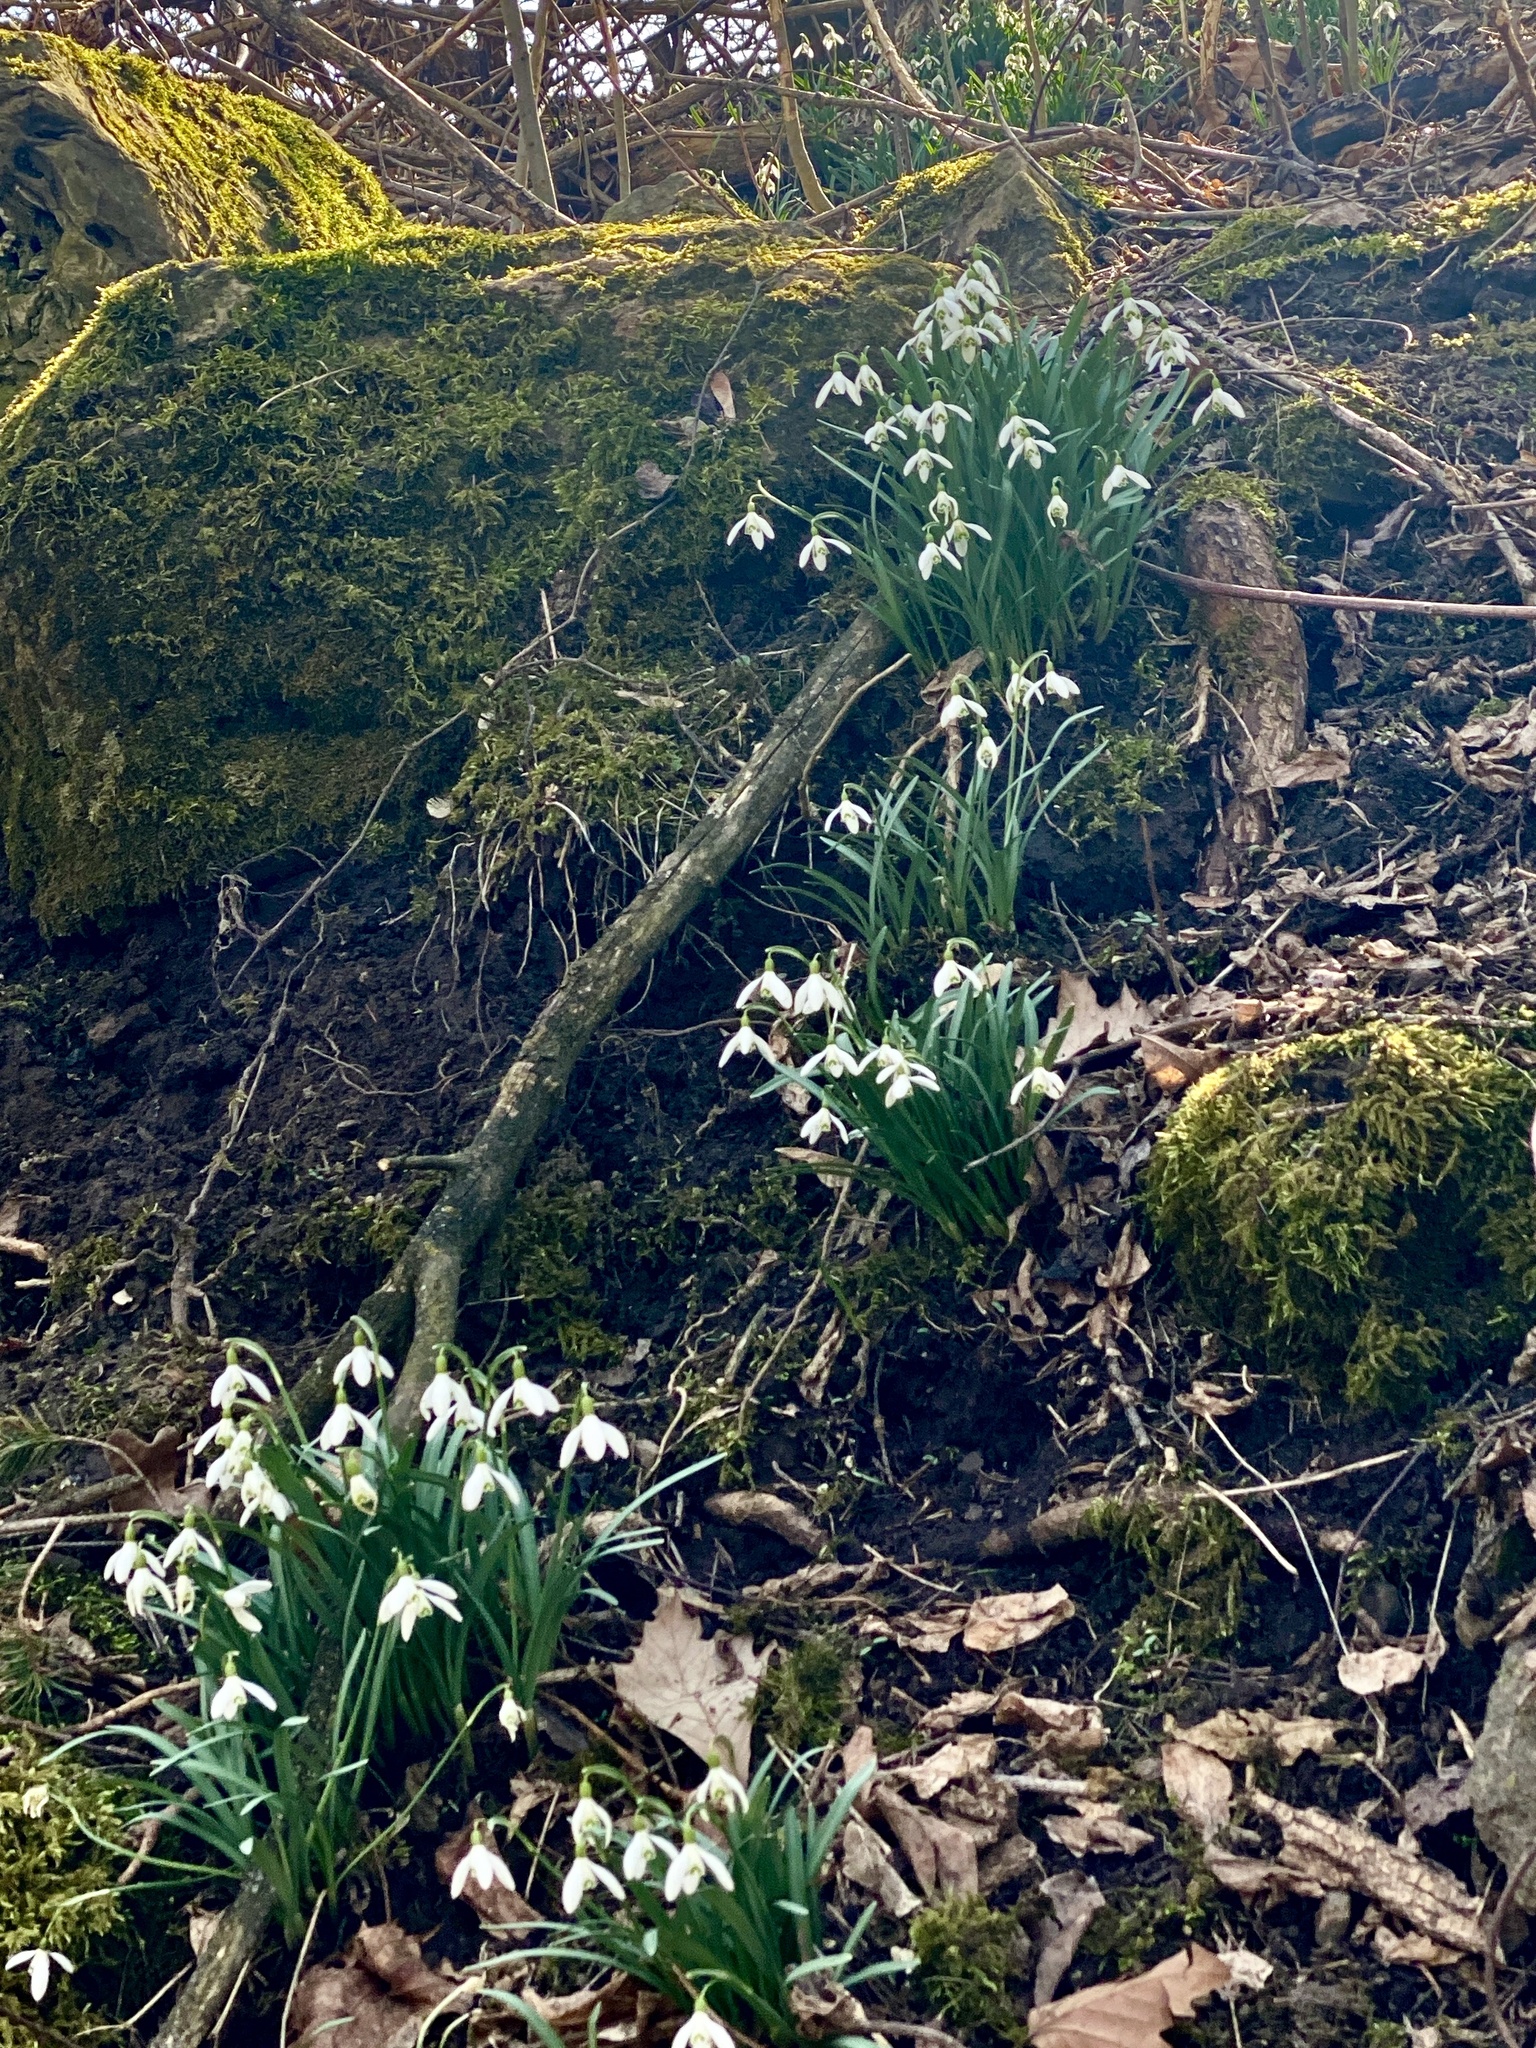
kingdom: Plantae
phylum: Tracheophyta
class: Liliopsida
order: Asparagales
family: Amaryllidaceae
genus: Galanthus
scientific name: Galanthus nivalis
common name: Snowdrop
